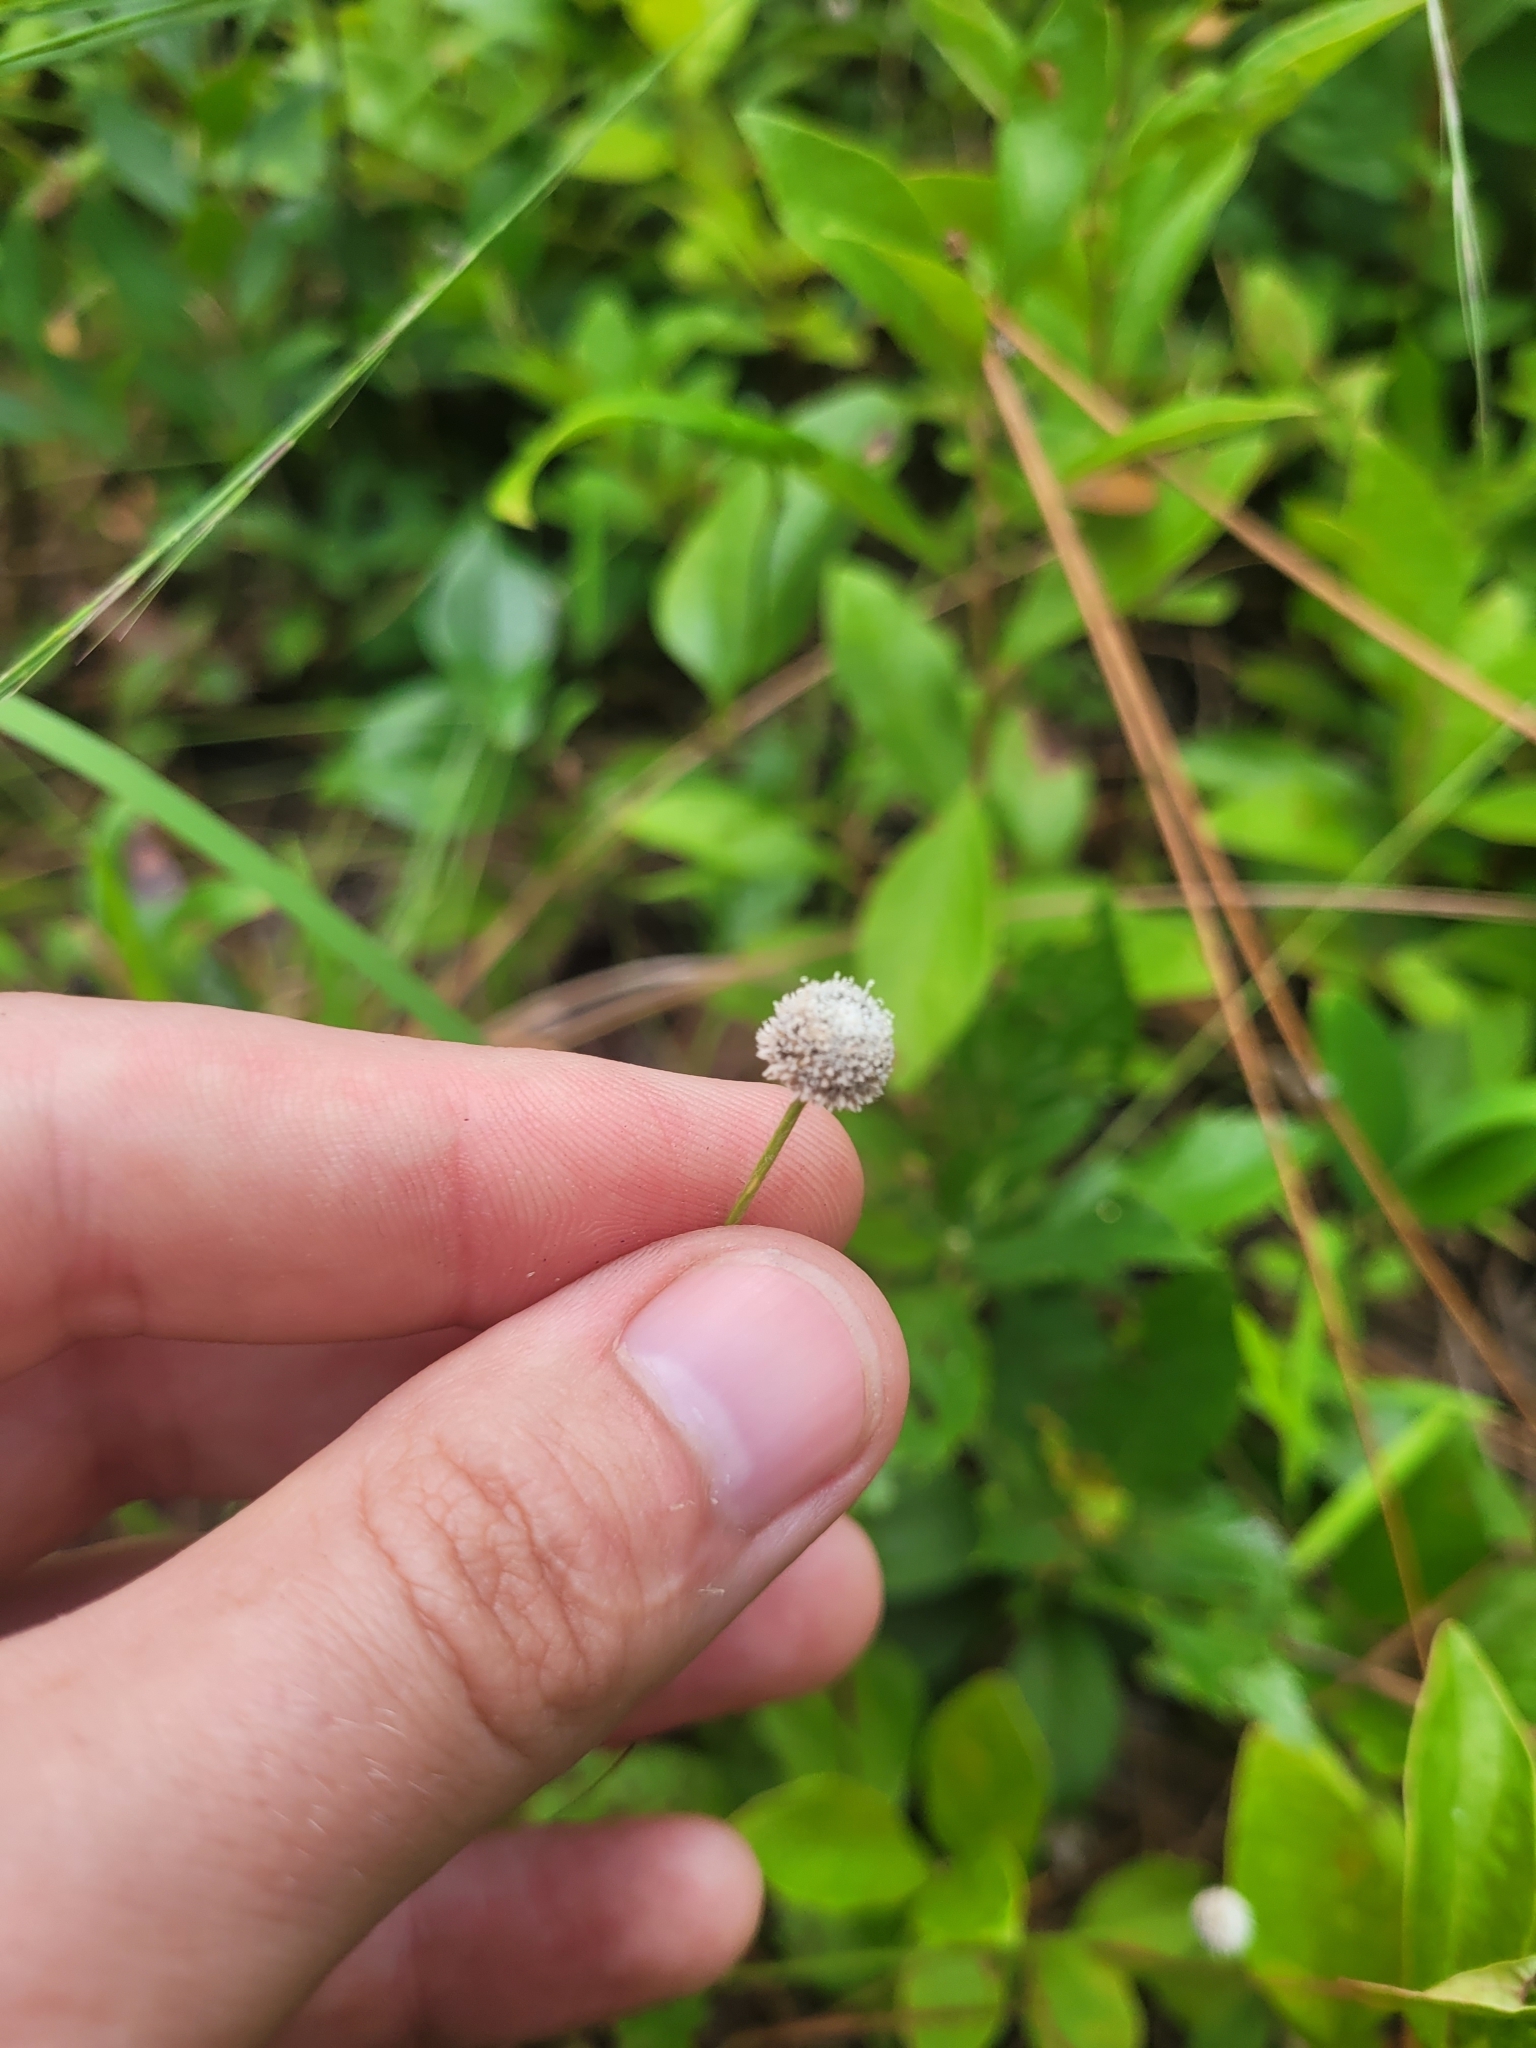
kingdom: Plantae
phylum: Tracheophyta
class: Liliopsida
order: Poales
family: Eriocaulaceae
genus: Paepalanthus
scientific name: Paepalanthus anceps
